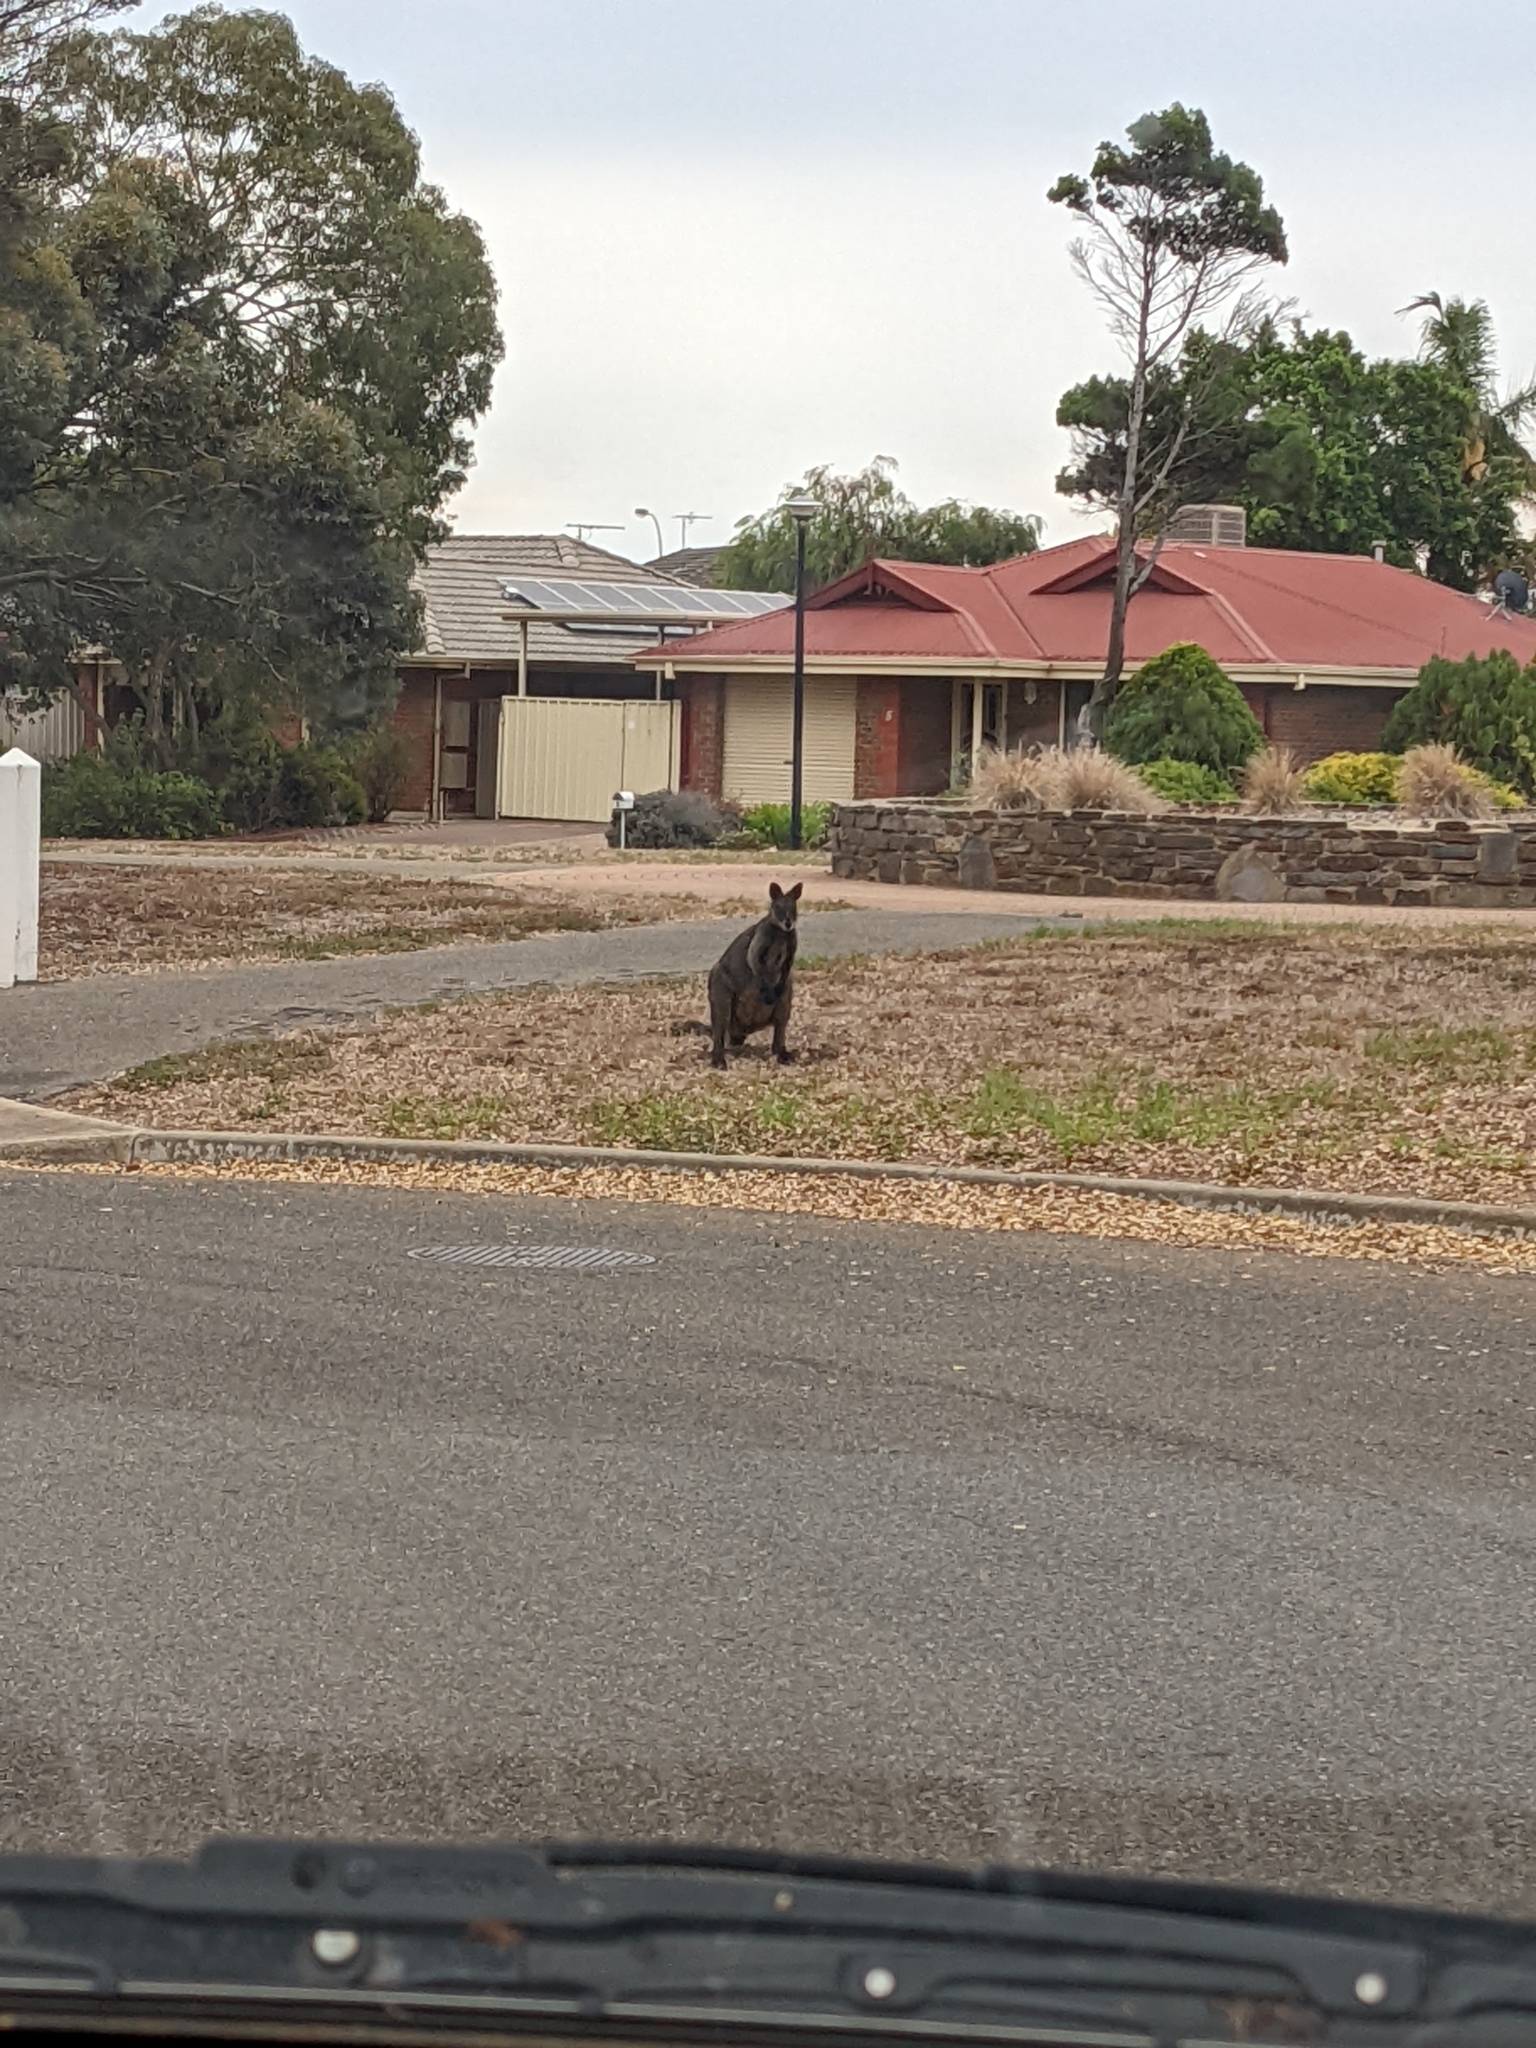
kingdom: Animalia
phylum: Chordata
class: Mammalia
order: Diprotodontia
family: Macropodidae
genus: Wallabia
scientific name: Wallabia bicolor
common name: Swamp wallaby
